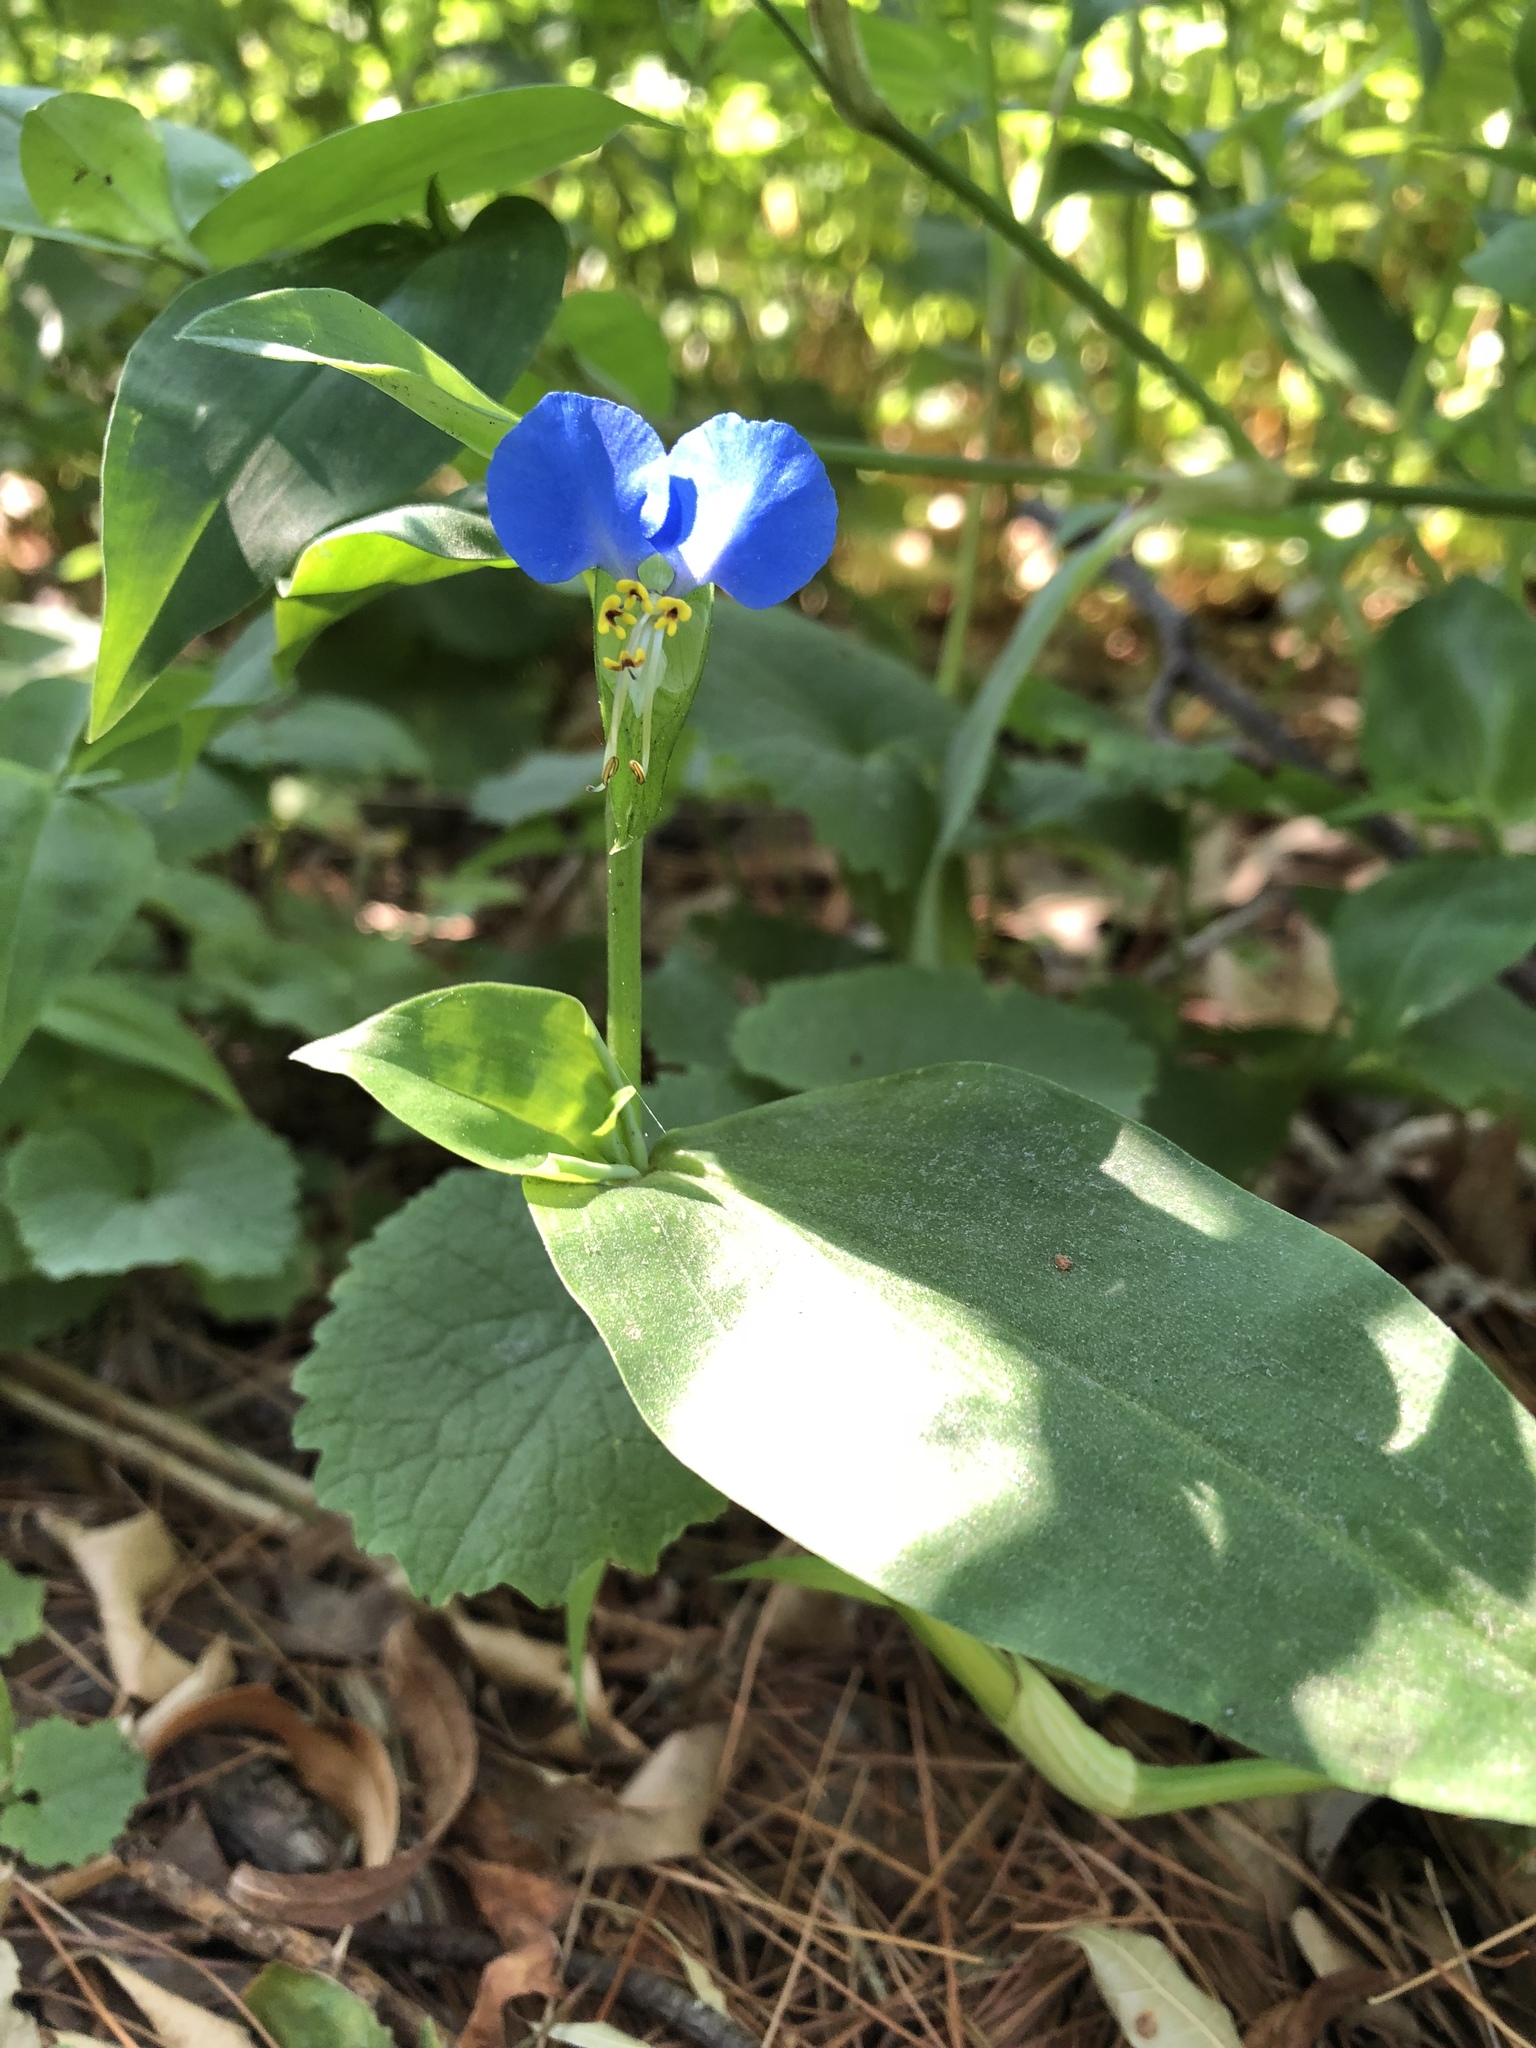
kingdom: Plantae
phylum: Tracheophyta
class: Liliopsida
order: Commelinales
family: Commelinaceae
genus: Commelina
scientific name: Commelina communis
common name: Asiatic dayflower
